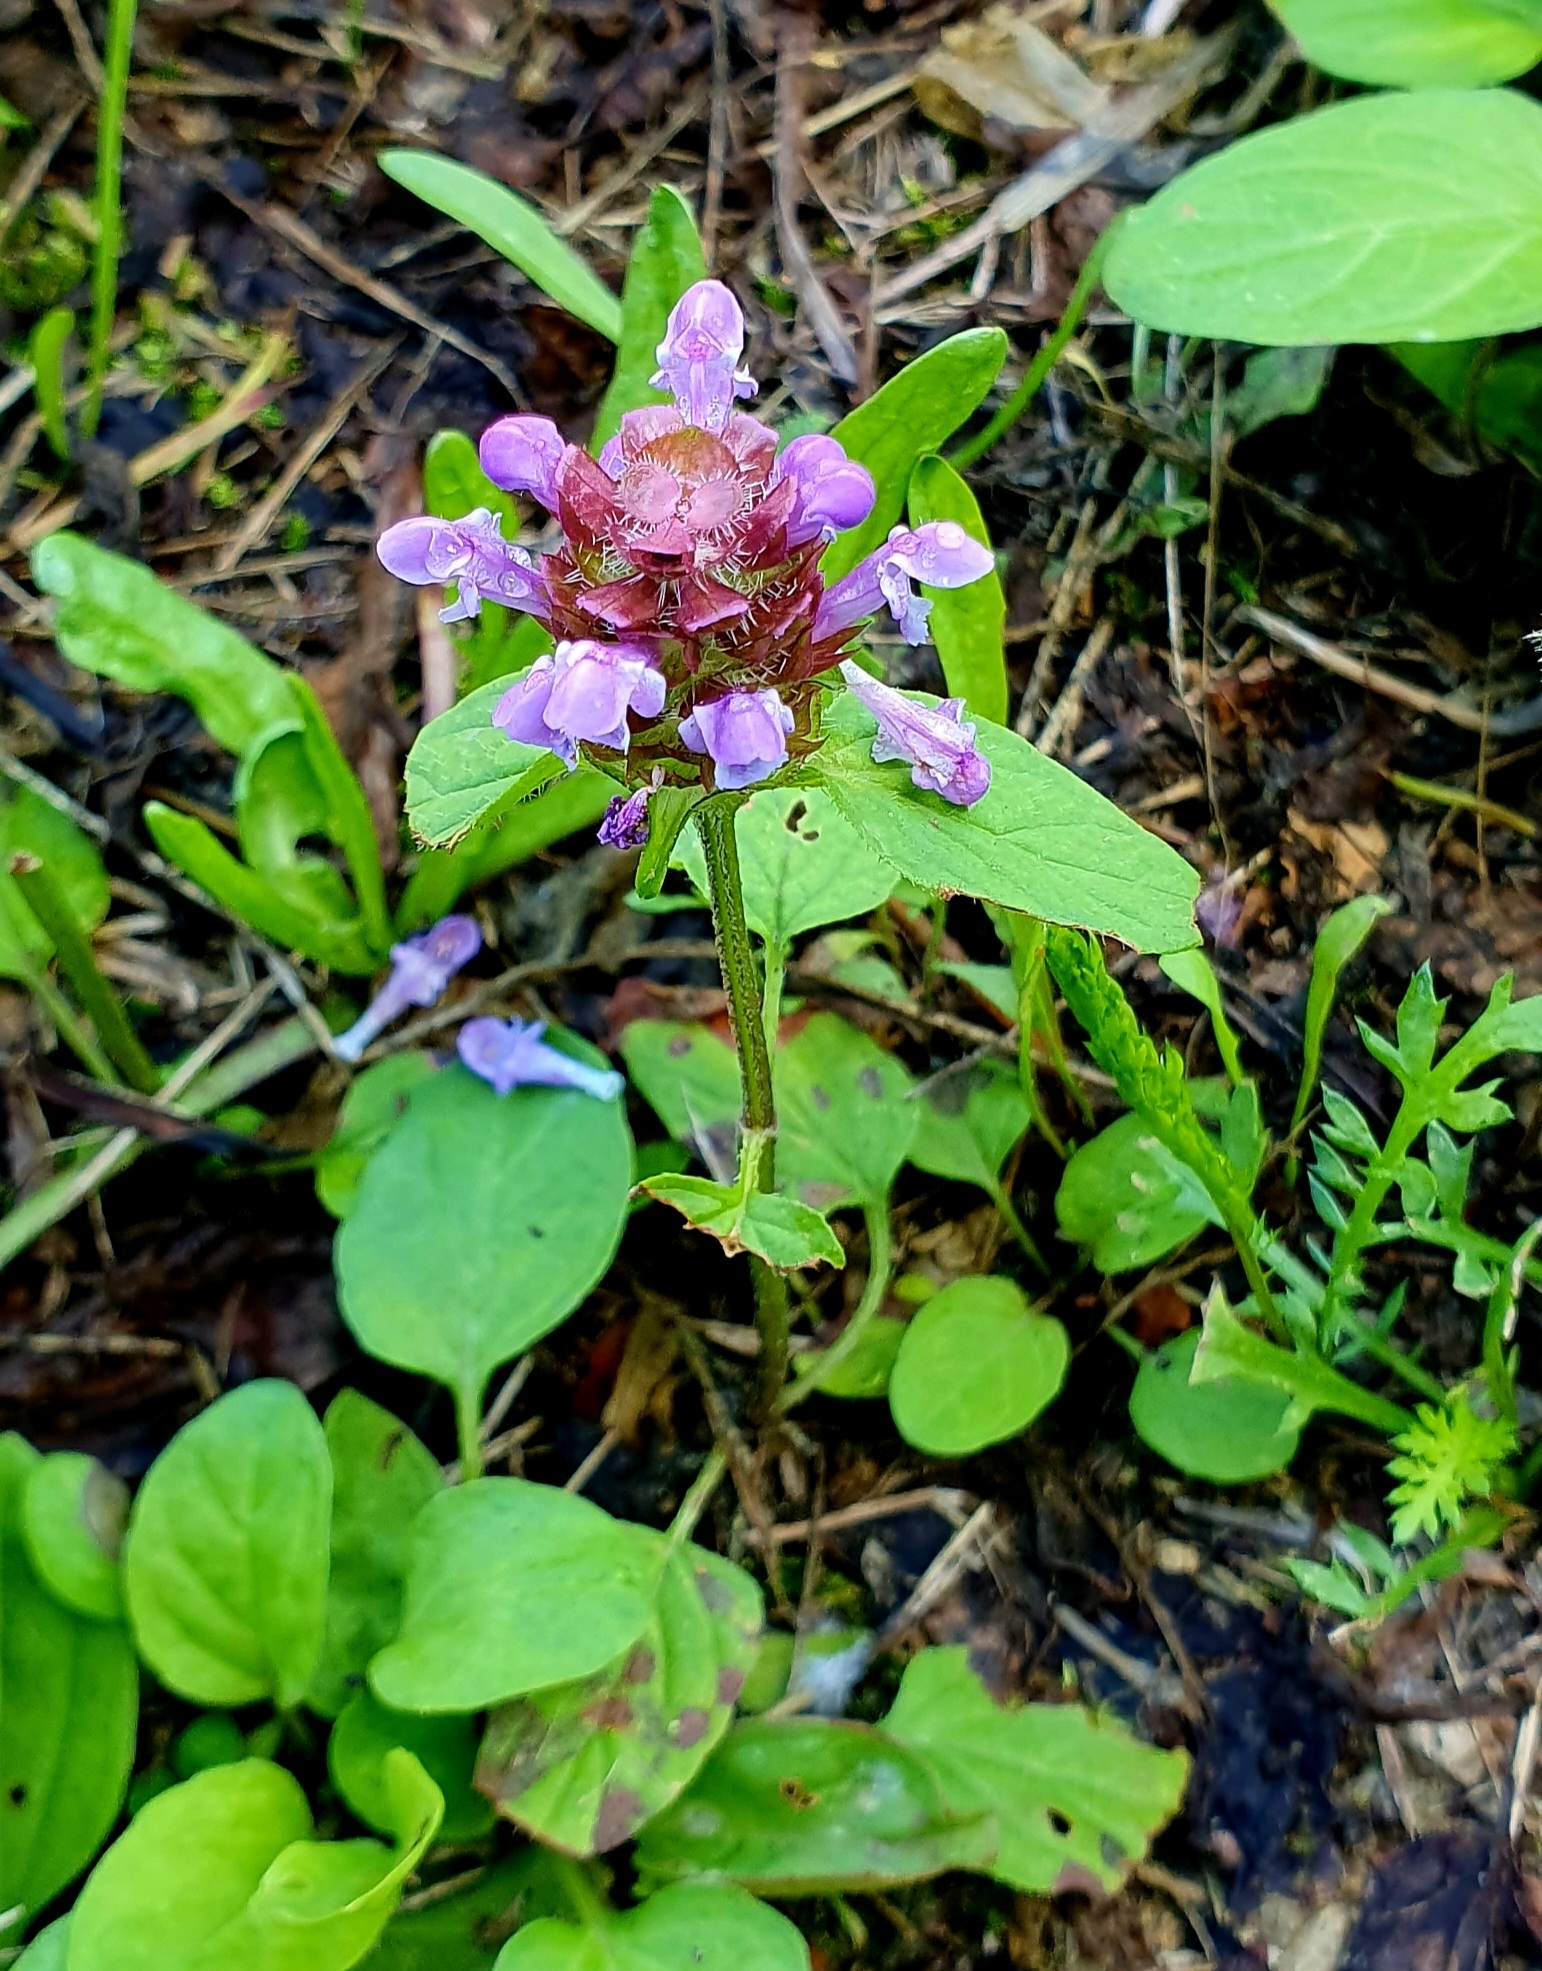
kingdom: Plantae
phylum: Tracheophyta
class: Magnoliopsida
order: Lamiales
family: Lamiaceae
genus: Prunella
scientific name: Prunella vulgaris
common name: Heal-all
